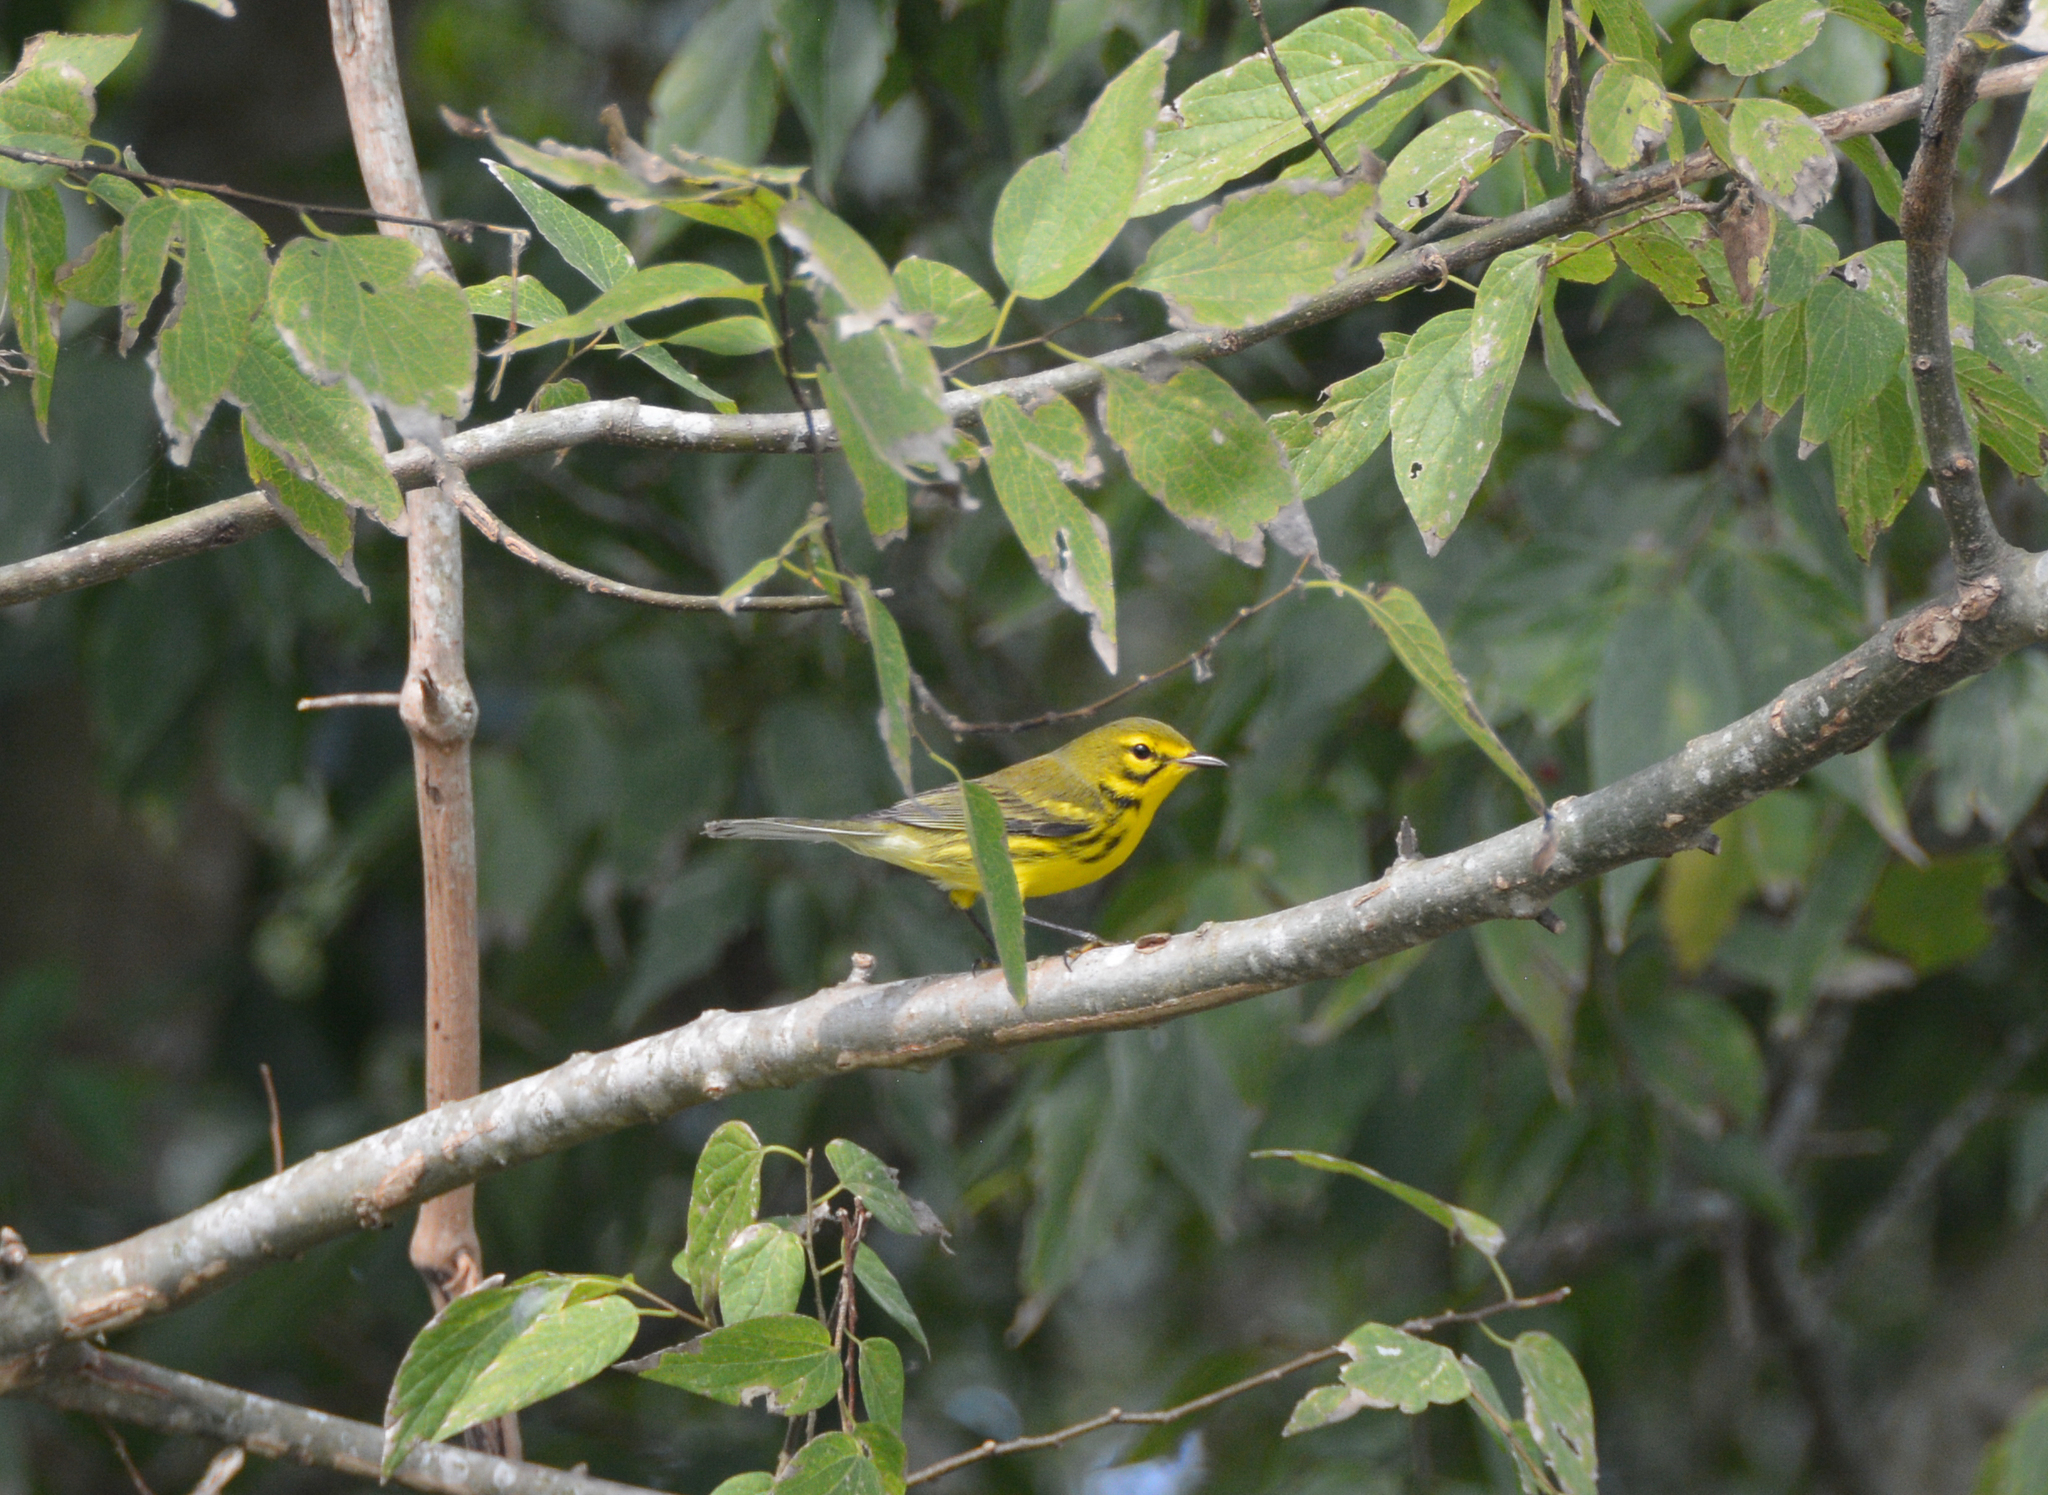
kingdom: Animalia
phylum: Chordata
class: Aves
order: Passeriformes
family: Parulidae
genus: Setophaga
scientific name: Setophaga discolor
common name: Prairie warbler
